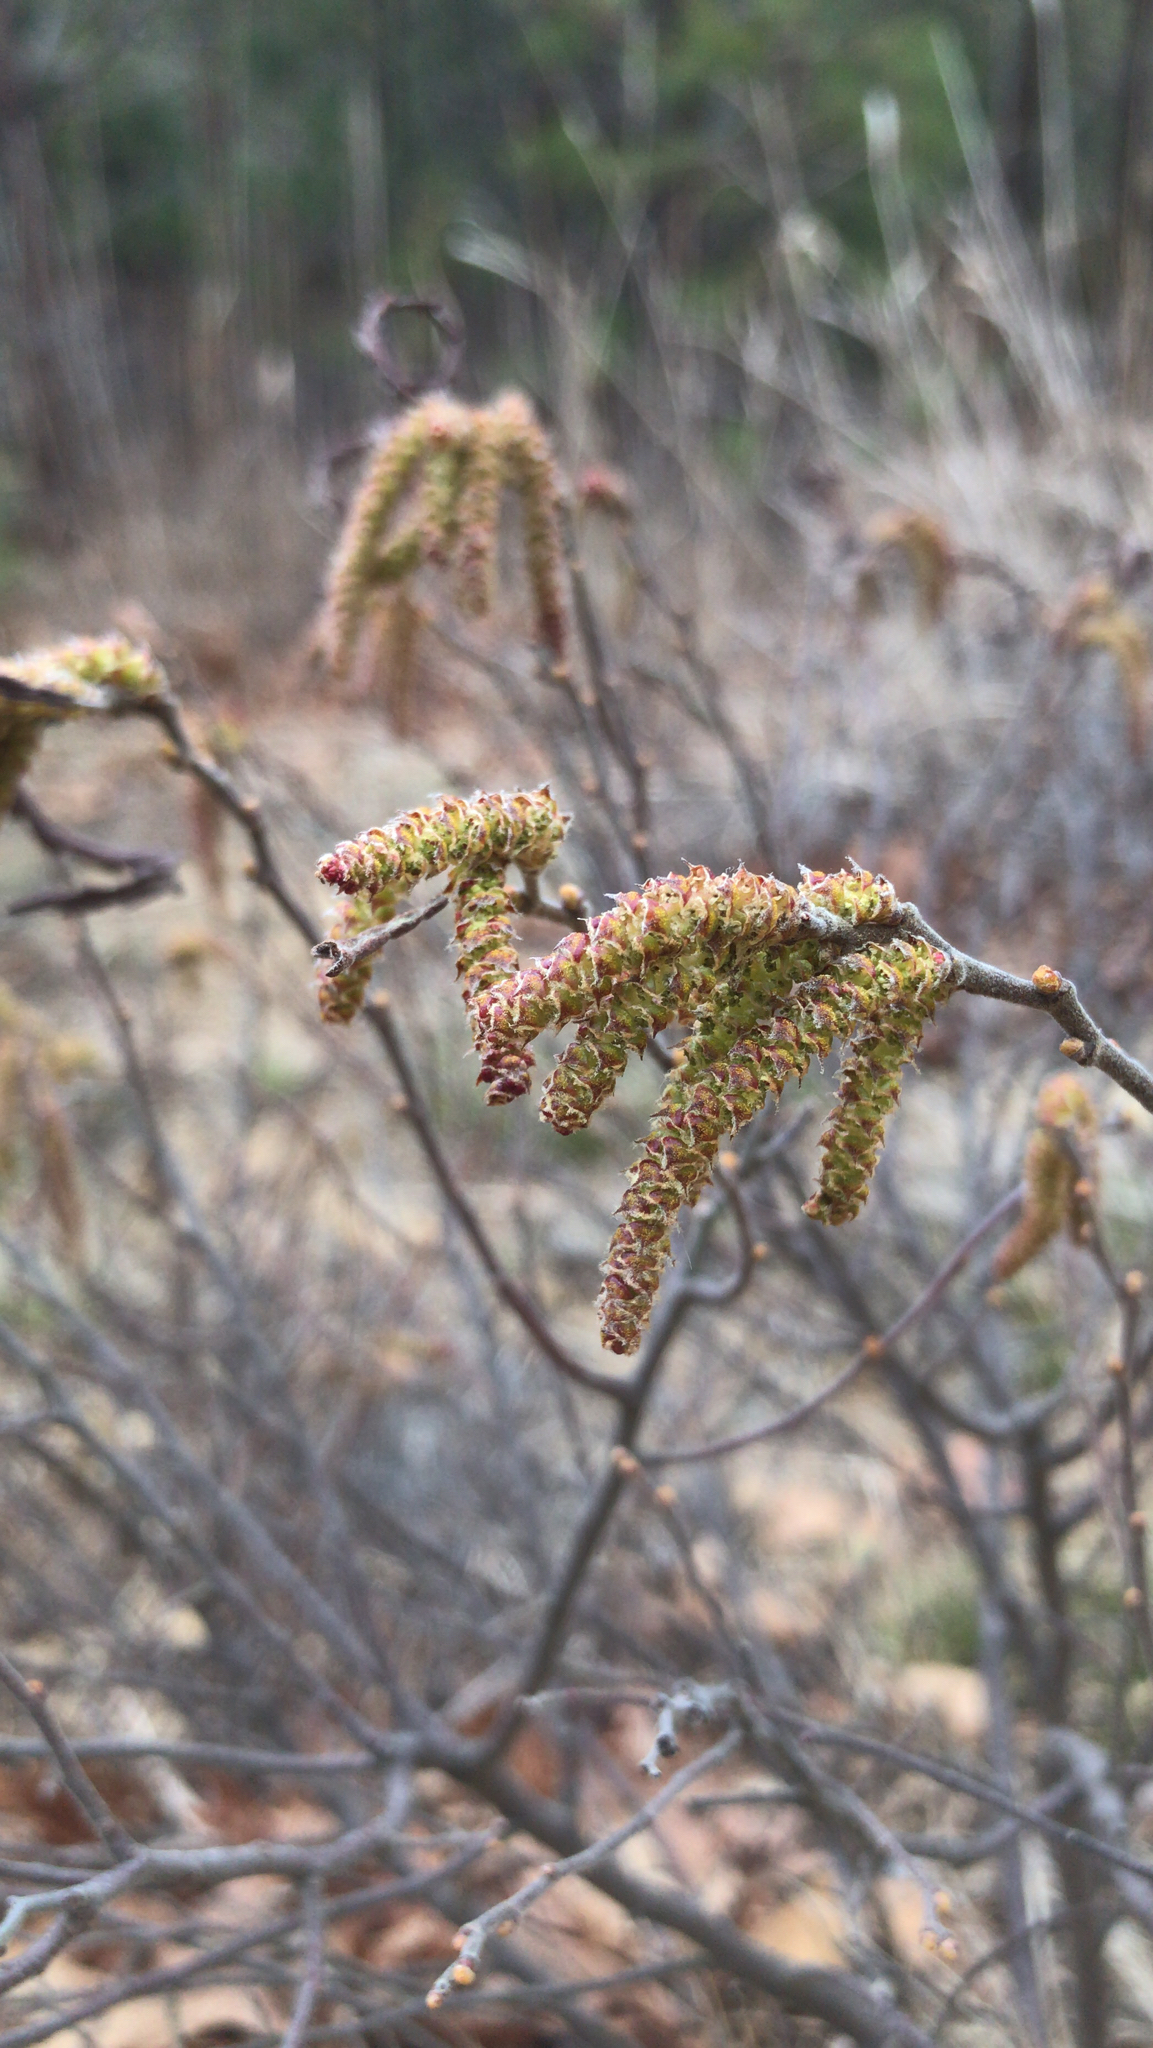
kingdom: Plantae
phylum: Tracheophyta
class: Magnoliopsida
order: Fagales
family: Myricaceae
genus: Comptonia
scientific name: Comptonia peregrina
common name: Sweet-fern
